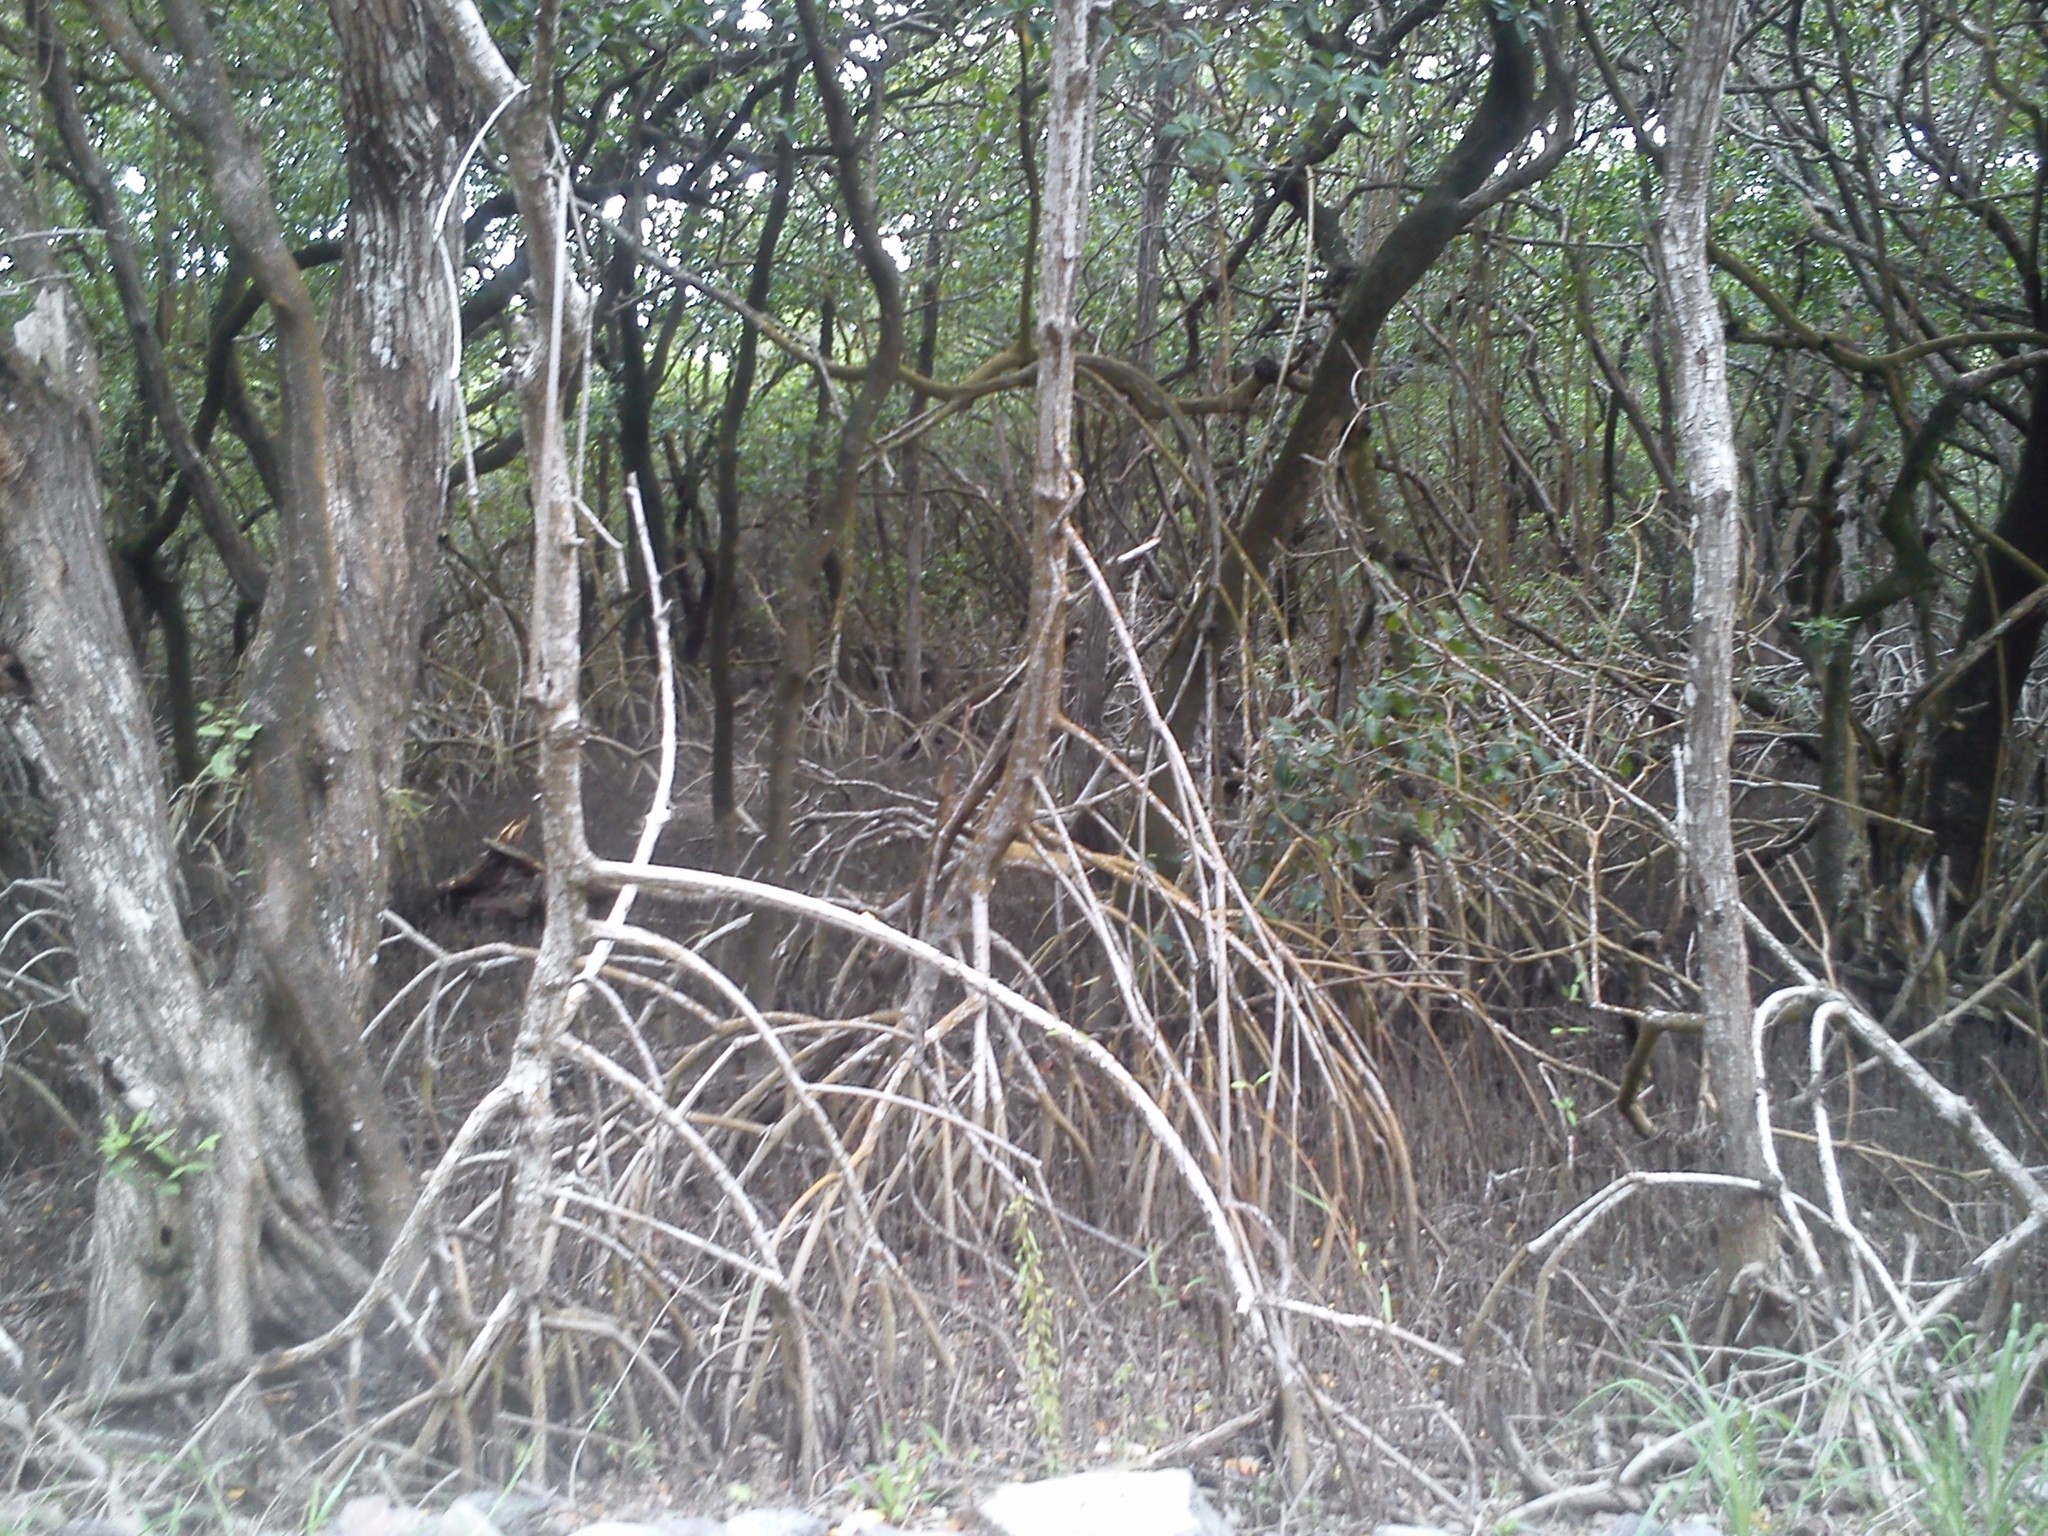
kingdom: Plantae
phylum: Tracheophyta
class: Magnoliopsida
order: Malpighiales
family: Rhizophoraceae
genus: Rhizophora
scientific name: Rhizophora mangle
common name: Red mangrove
